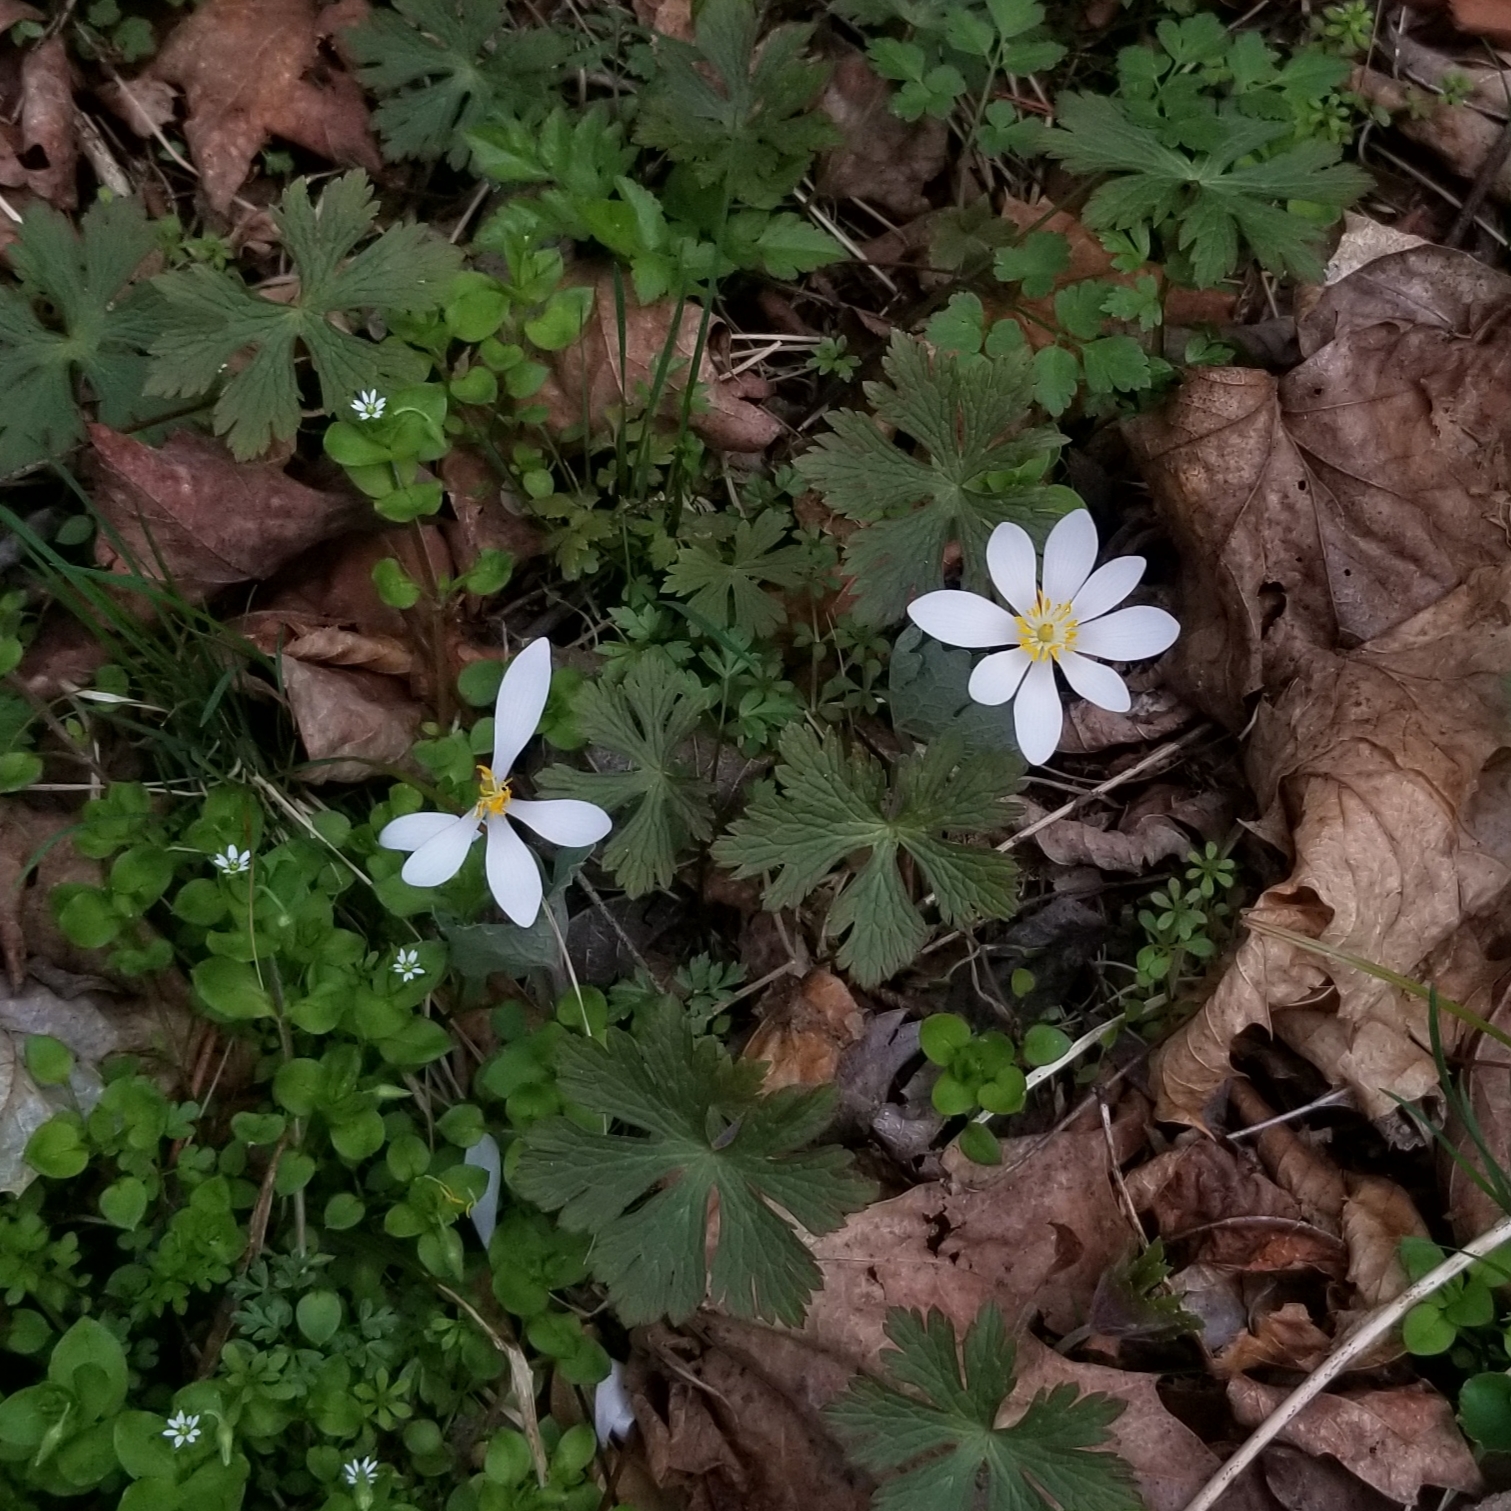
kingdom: Plantae
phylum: Tracheophyta
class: Magnoliopsida
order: Ranunculales
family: Papaveraceae
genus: Sanguinaria
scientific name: Sanguinaria canadensis
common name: Bloodroot
